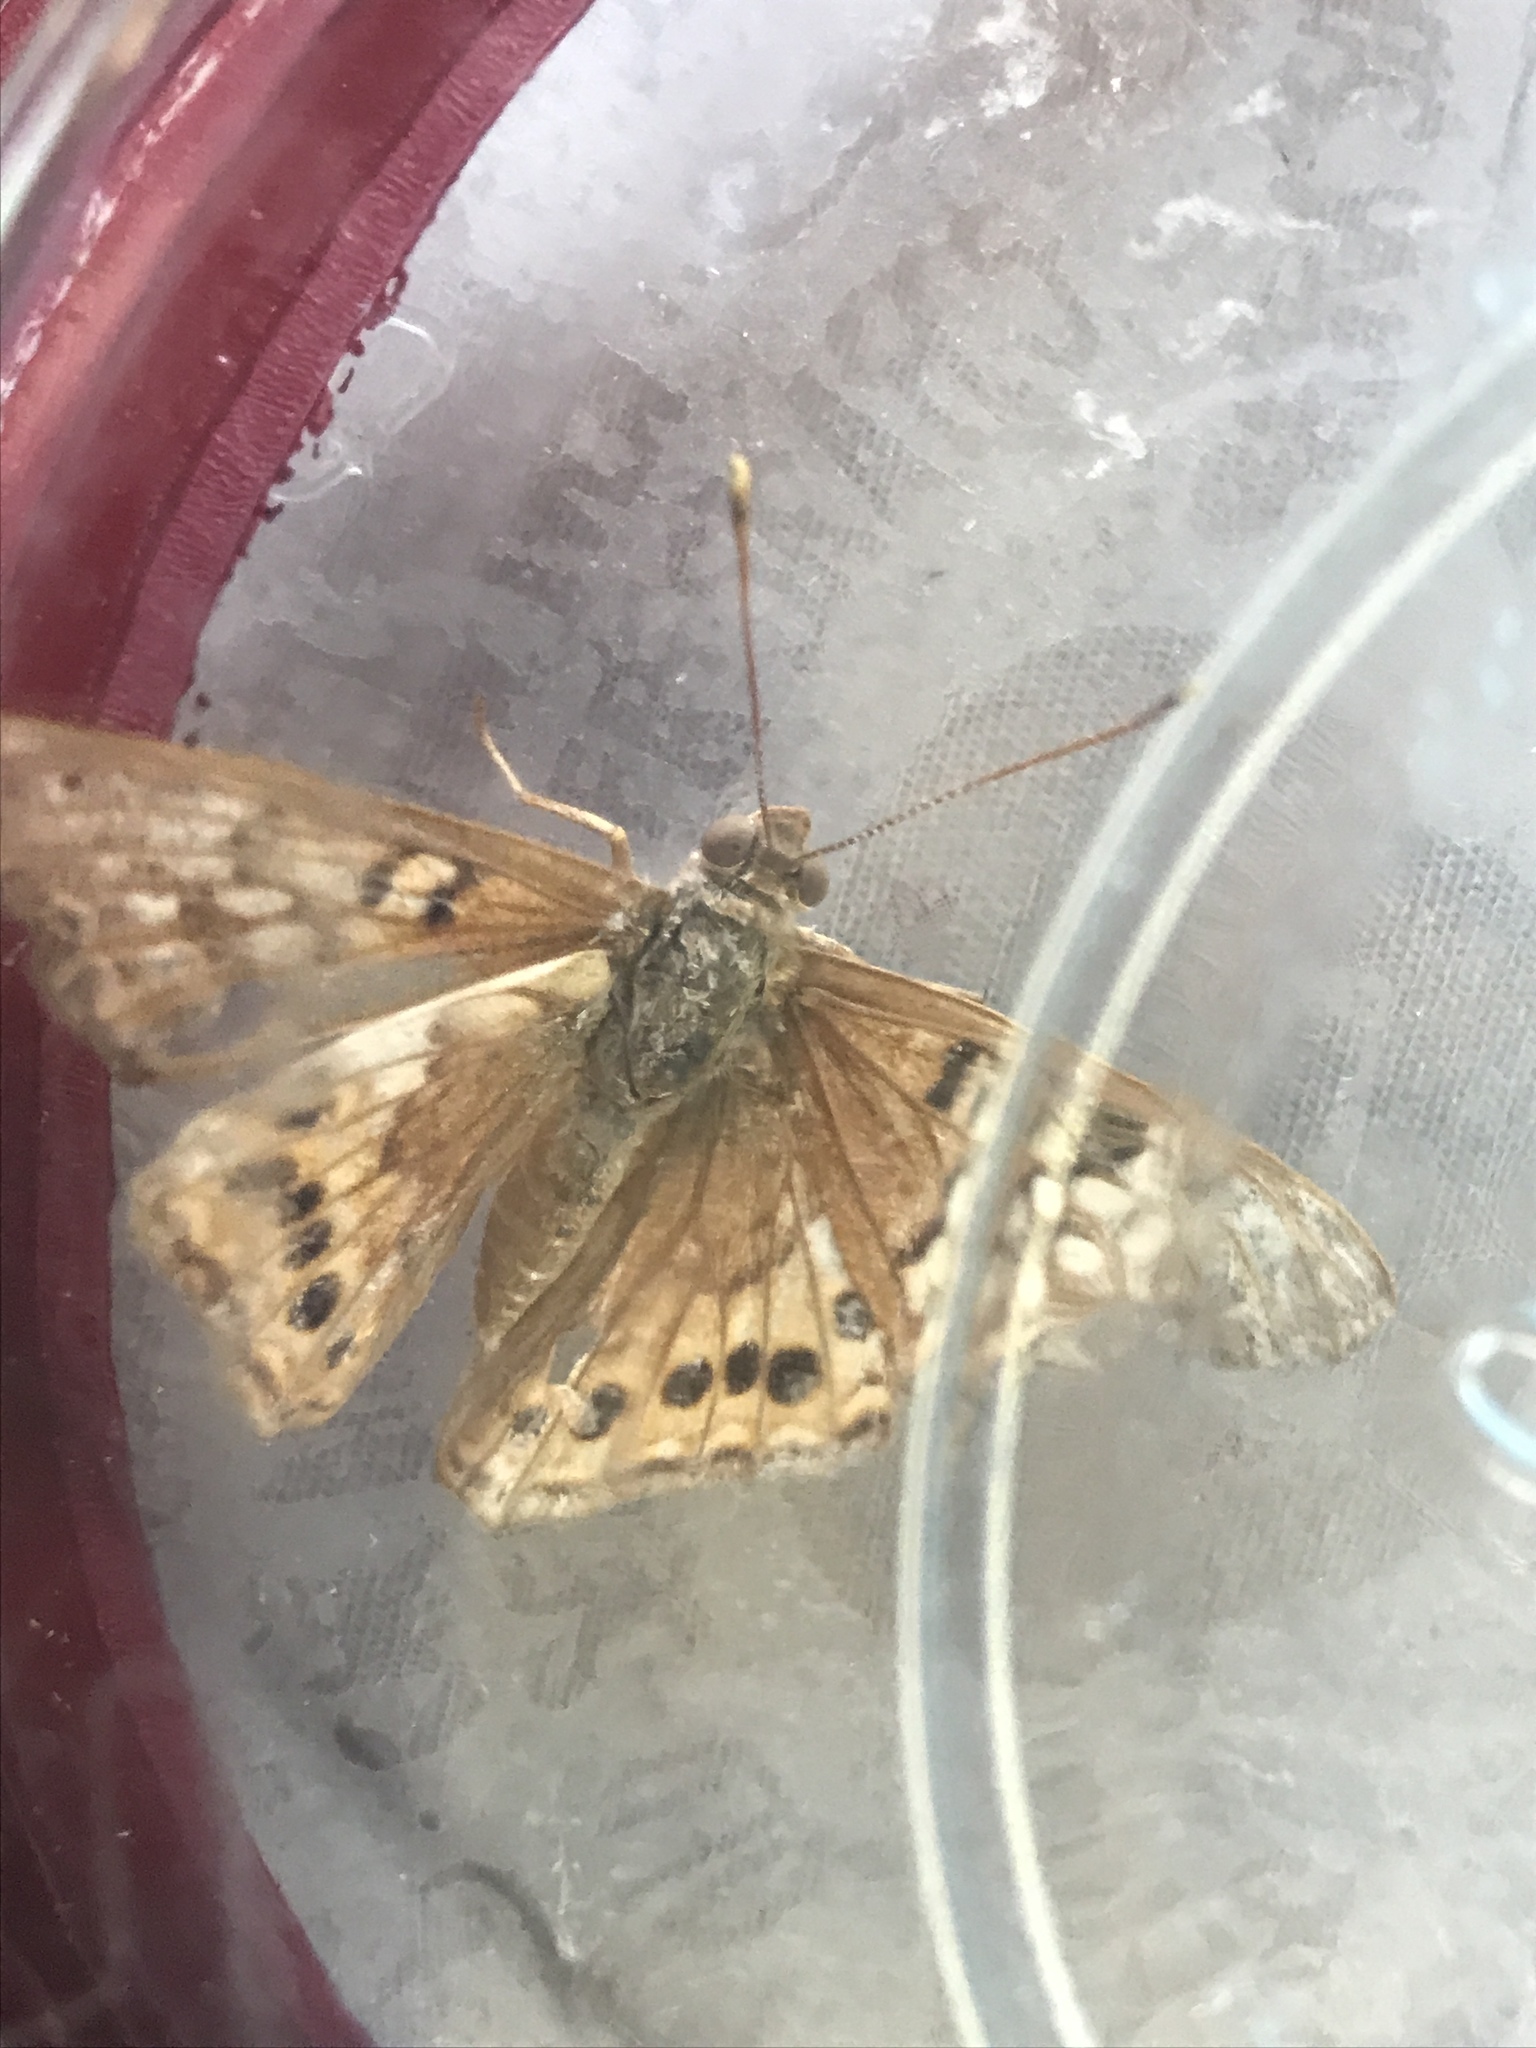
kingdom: Animalia
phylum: Arthropoda
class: Insecta
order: Lepidoptera
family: Nymphalidae
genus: Asterocampa
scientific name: Asterocampa clyton
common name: Tawny emperor
